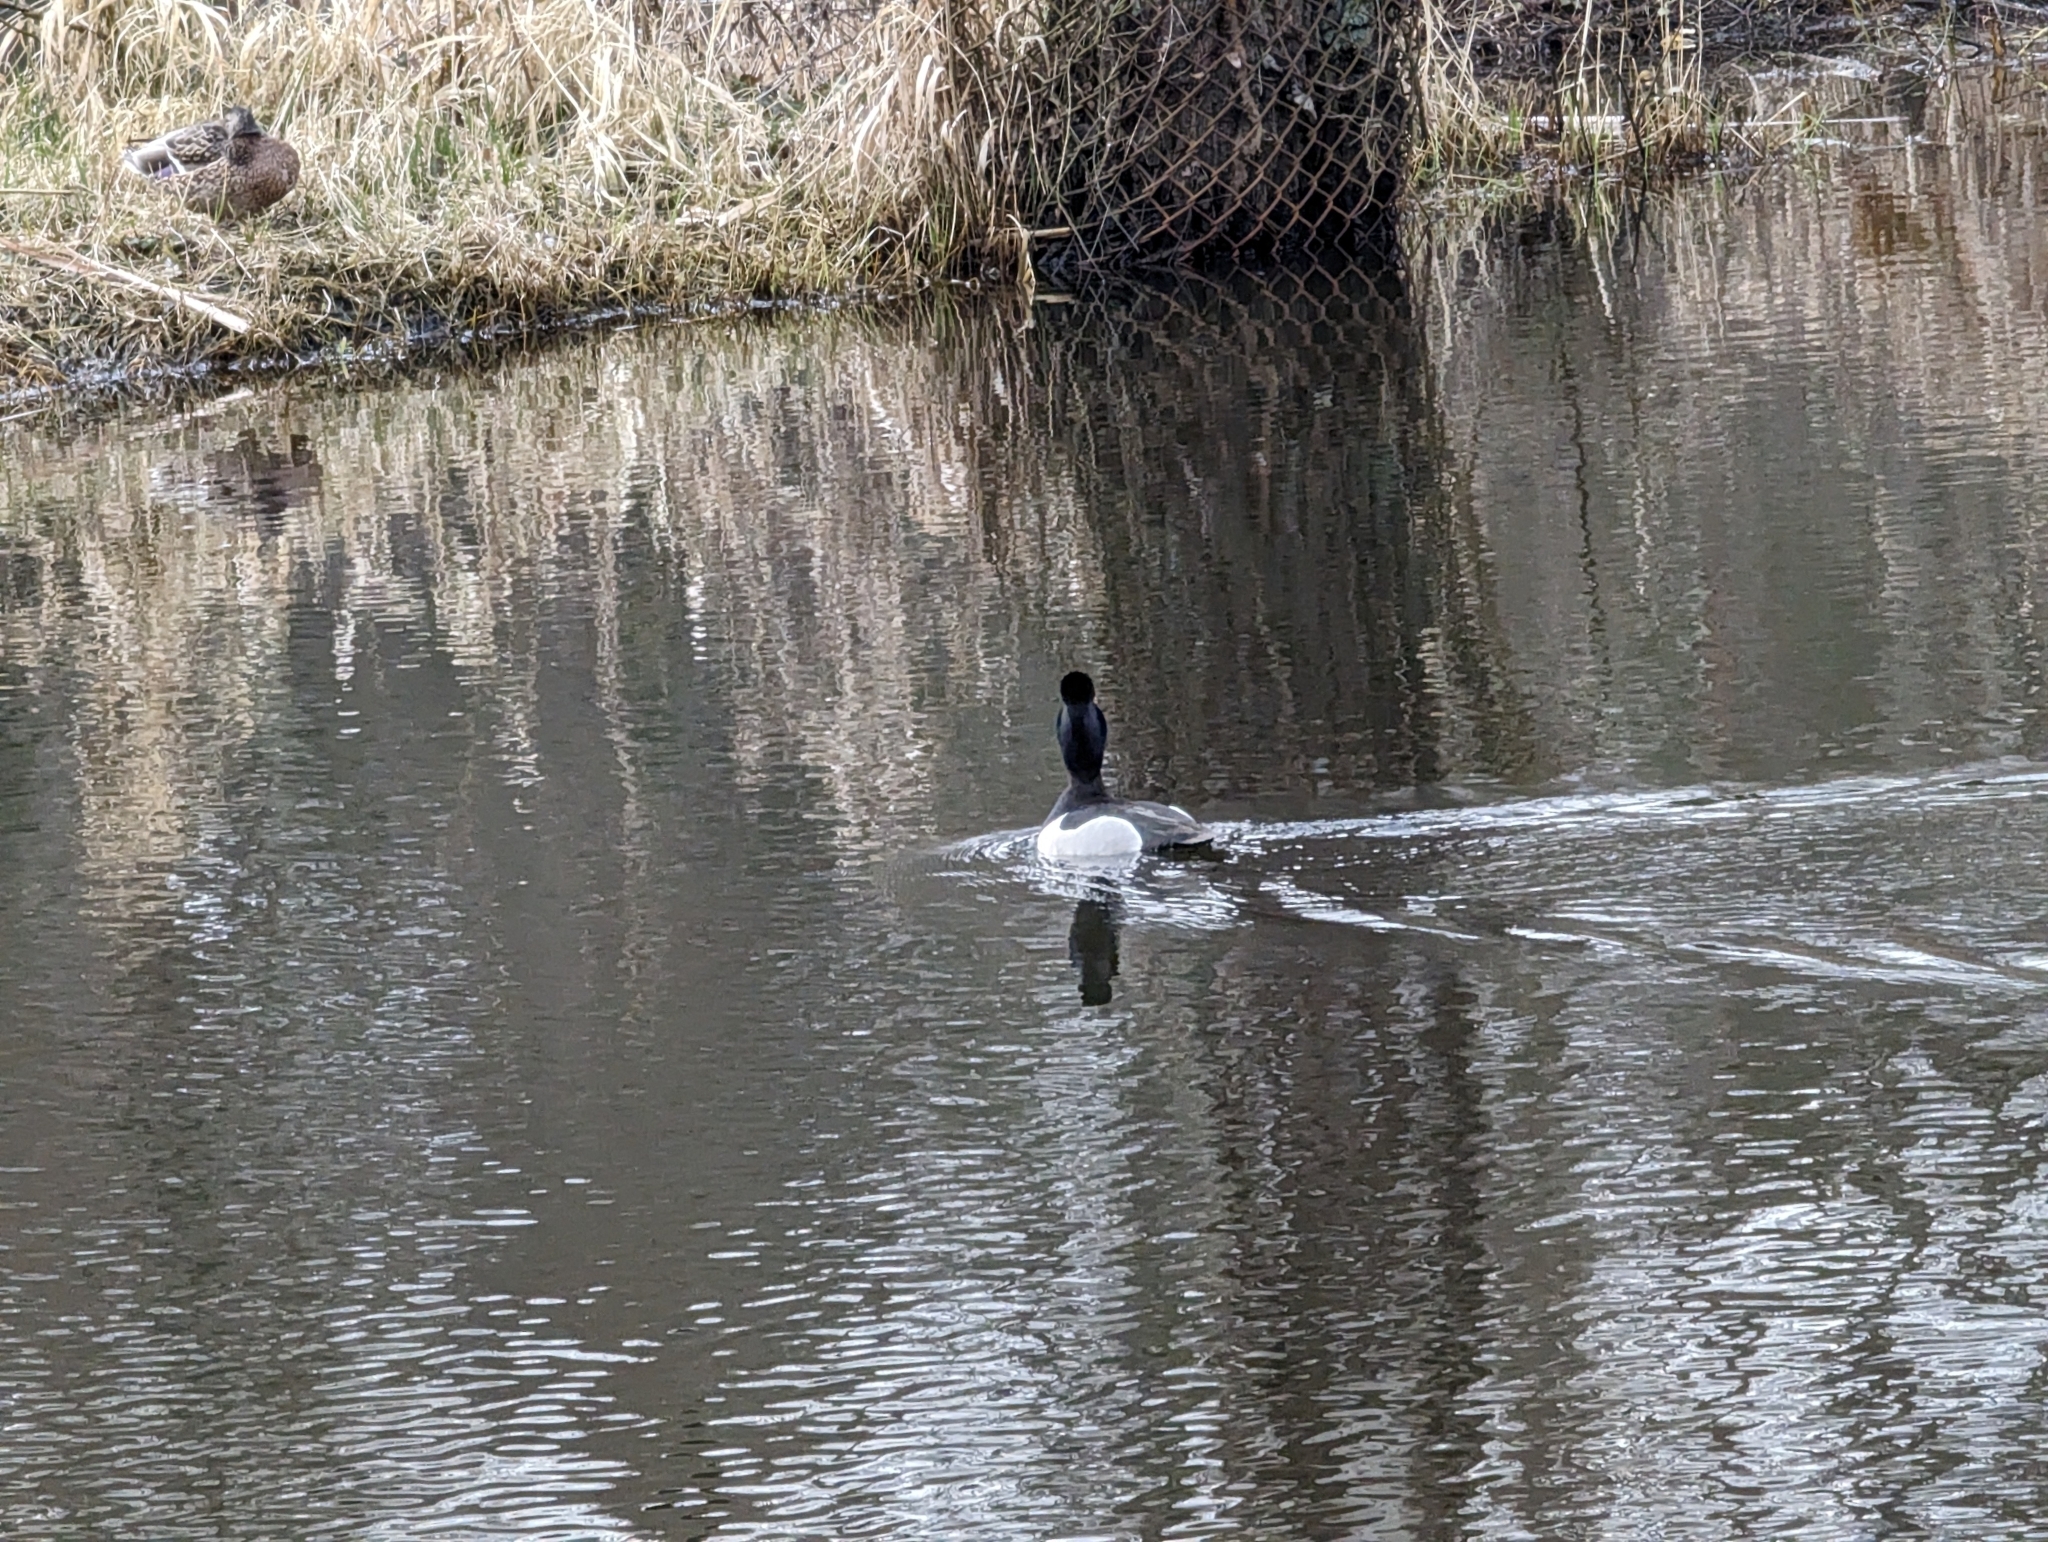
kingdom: Animalia
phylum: Chordata
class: Aves
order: Anseriformes
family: Anatidae
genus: Aythya
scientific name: Aythya collaris
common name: Ring-necked duck
